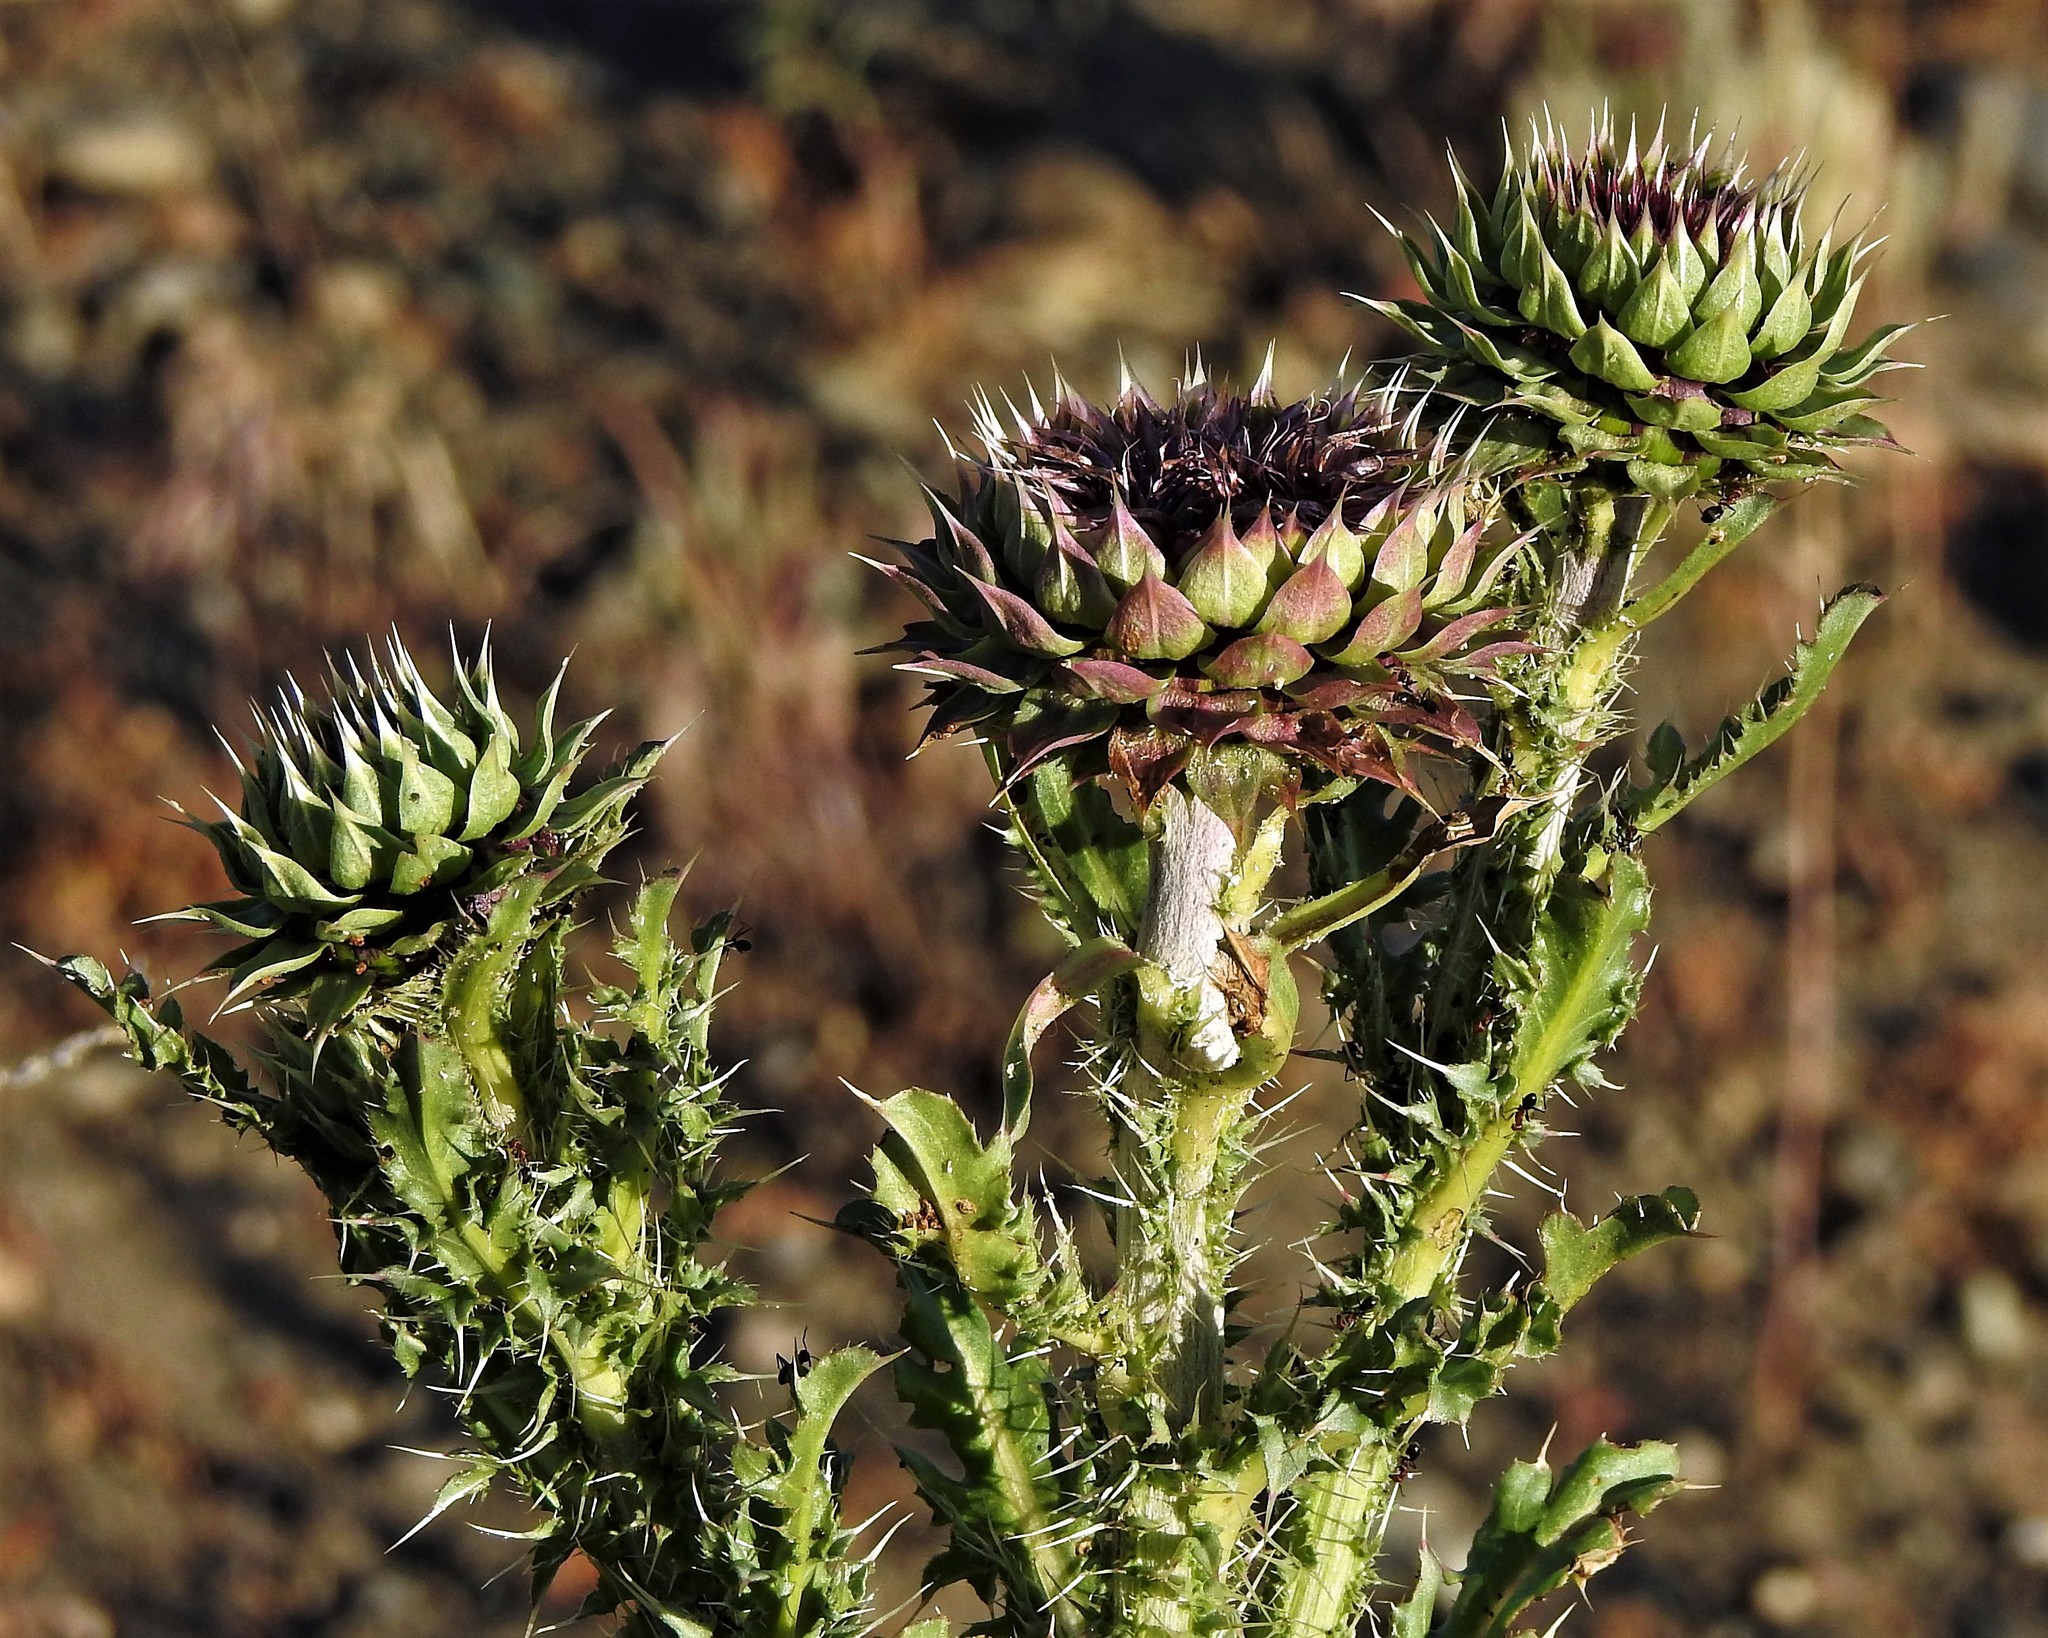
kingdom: Plantae
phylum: Tracheophyta
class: Magnoliopsida
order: Asterales
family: Asteraceae
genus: Carduus
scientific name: Carduus nutans
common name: Musk thistle
